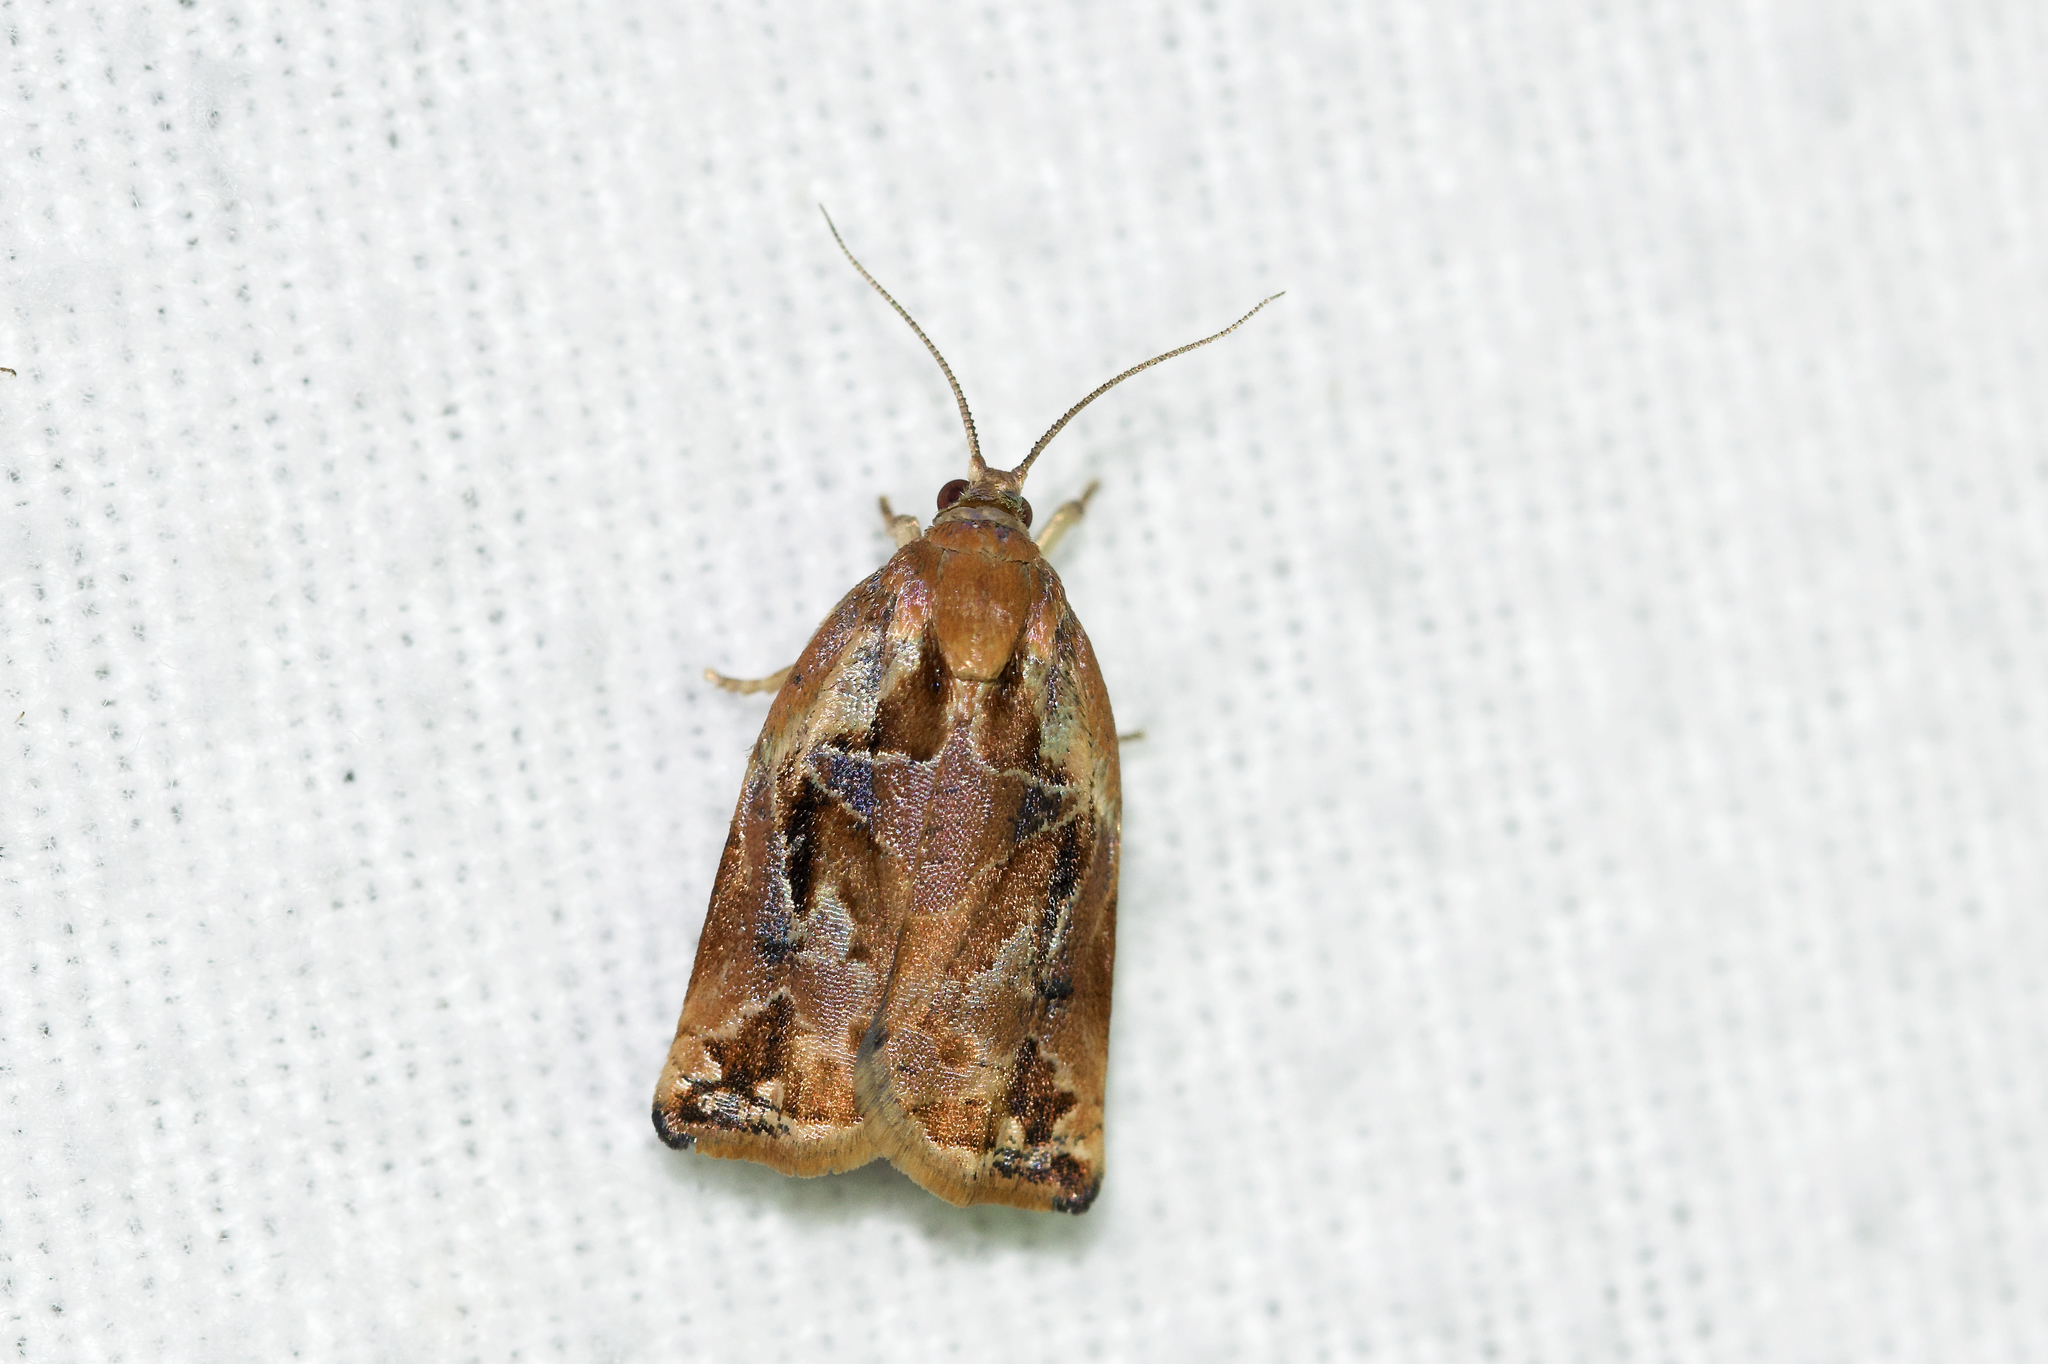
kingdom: Animalia
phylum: Arthropoda
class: Insecta
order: Lepidoptera
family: Tortricidae
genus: Archips
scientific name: Archips oporana
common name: Sprice tortrix moth
